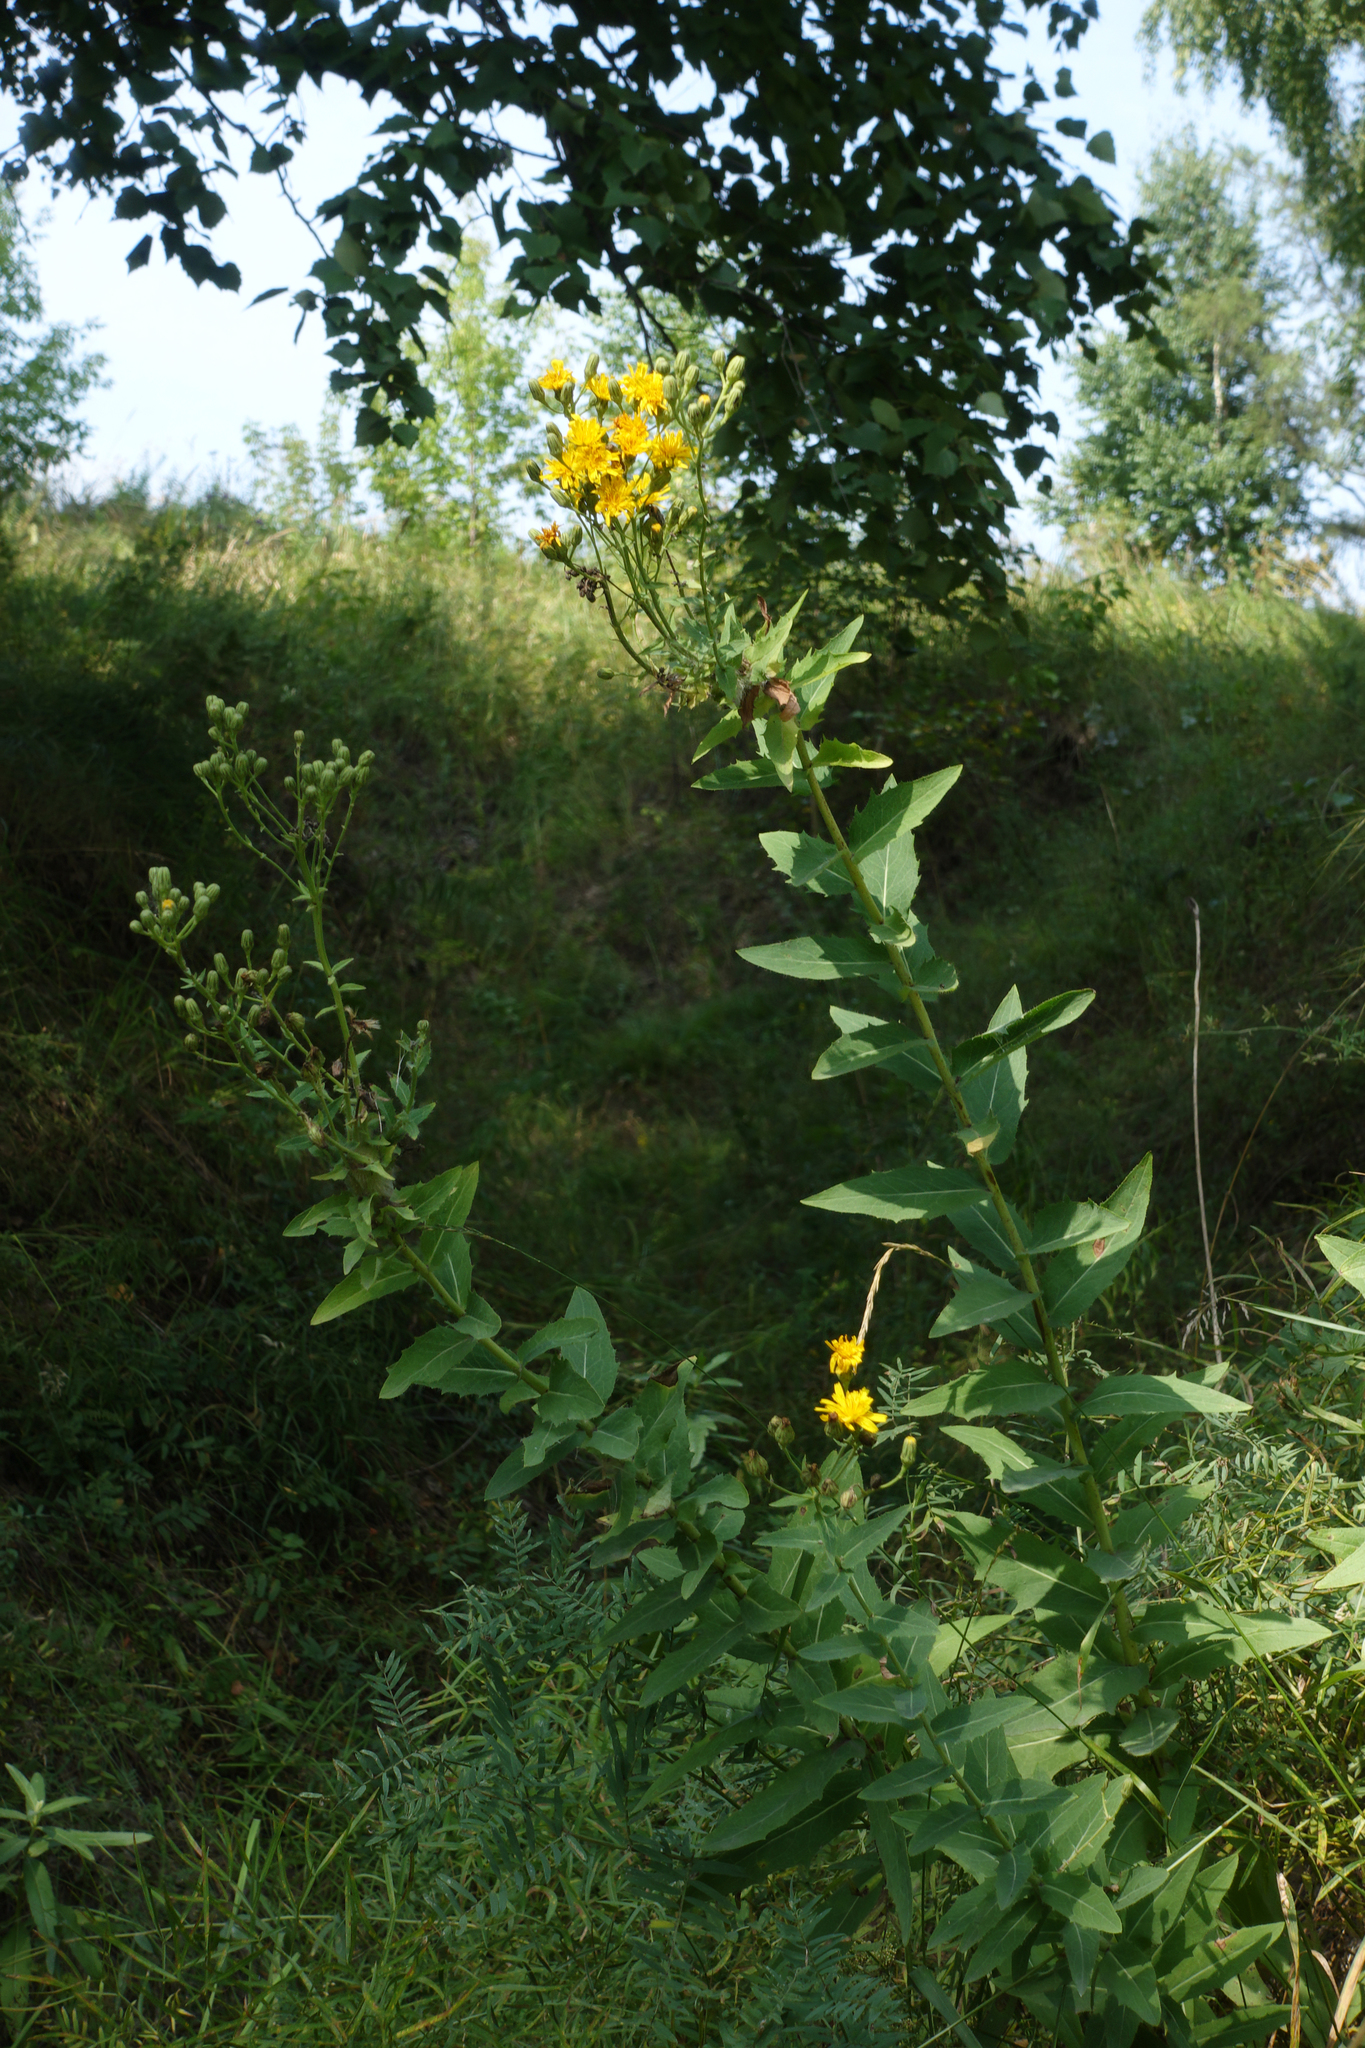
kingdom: Plantae
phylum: Tracheophyta
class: Magnoliopsida
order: Asterales
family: Asteraceae
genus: Hieracium
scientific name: Hieracium virosum
